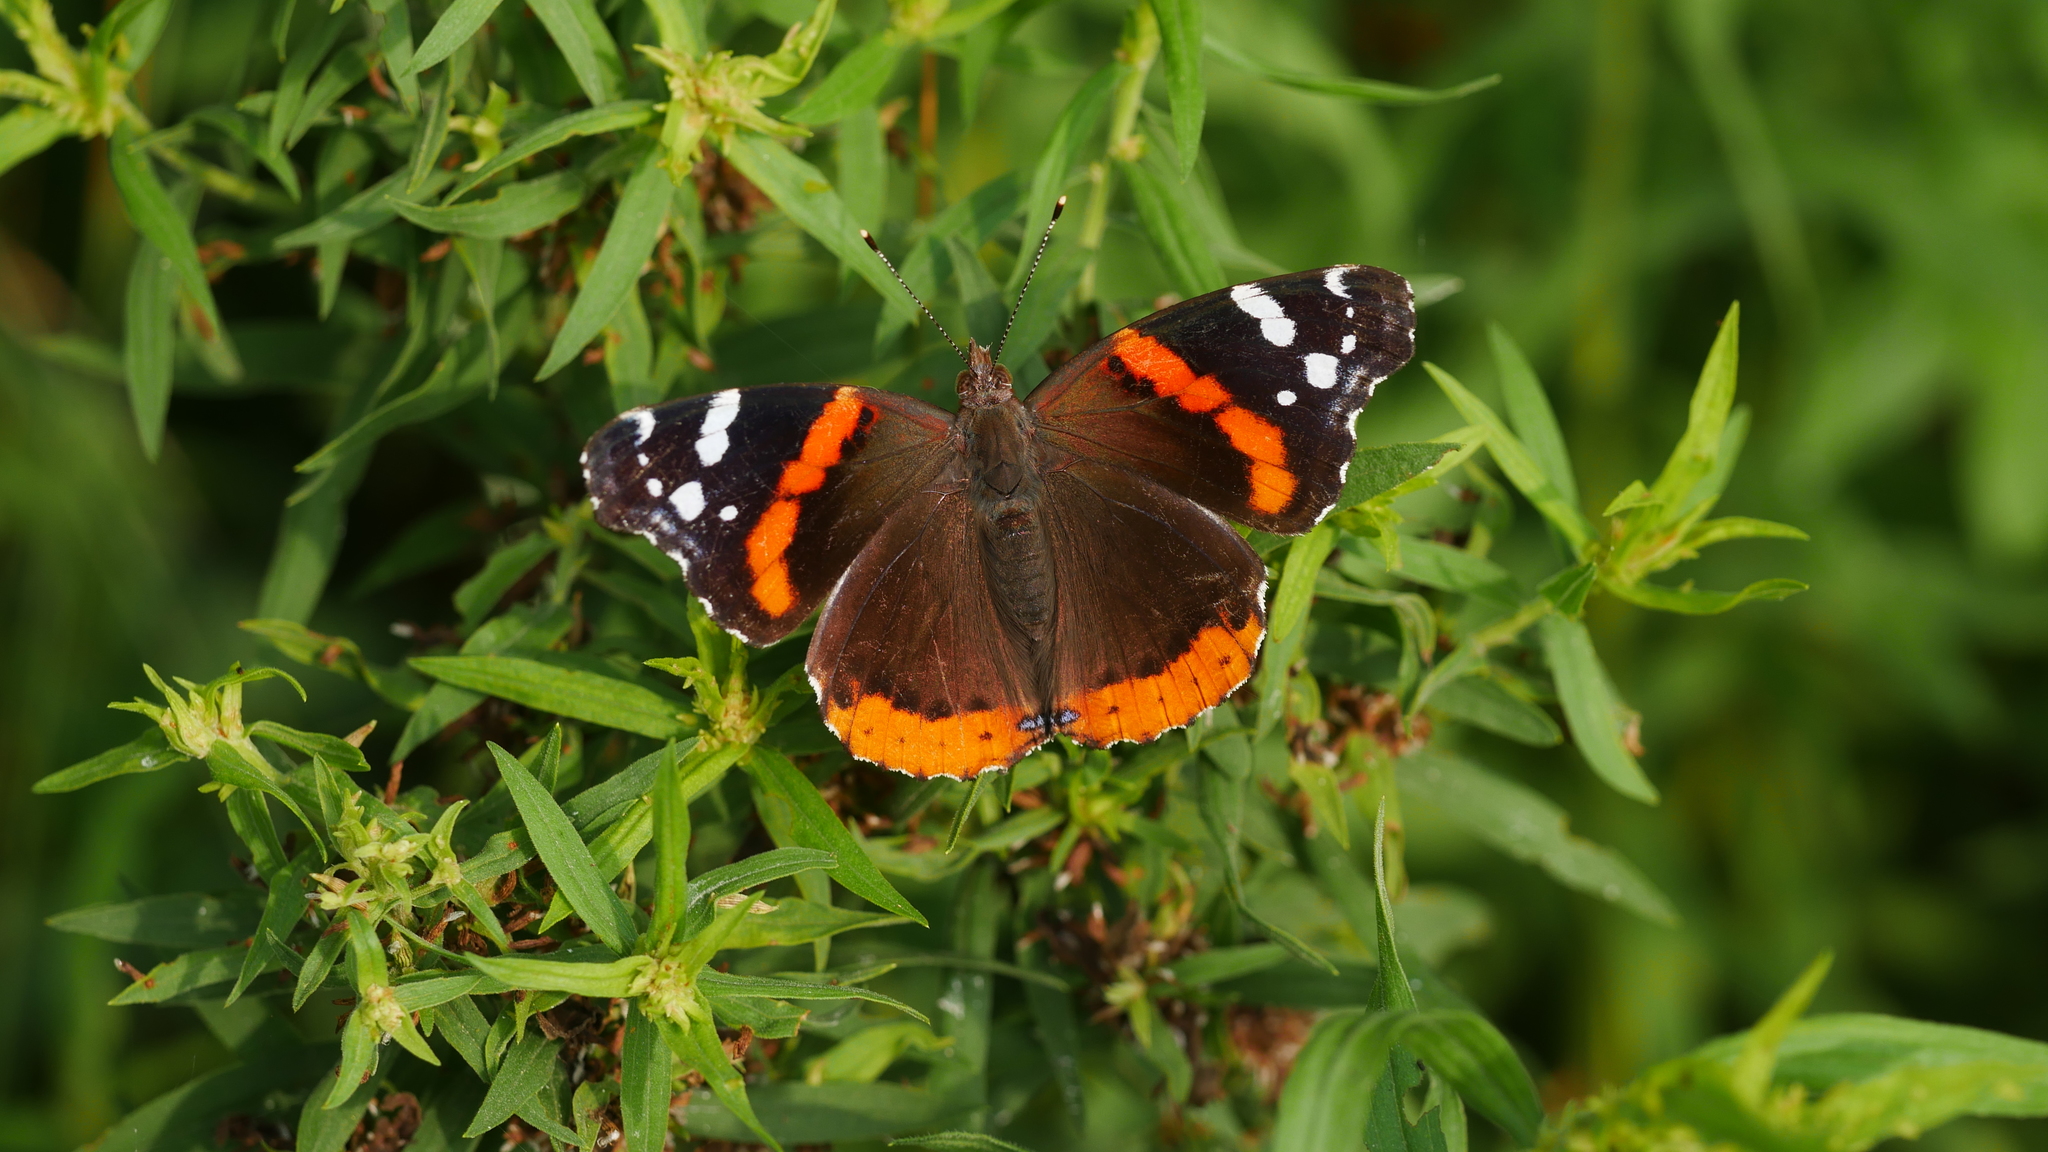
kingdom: Animalia
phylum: Arthropoda
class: Insecta
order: Lepidoptera
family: Nymphalidae
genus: Vanessa
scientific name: Vanessa atalanta
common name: Red admiral
